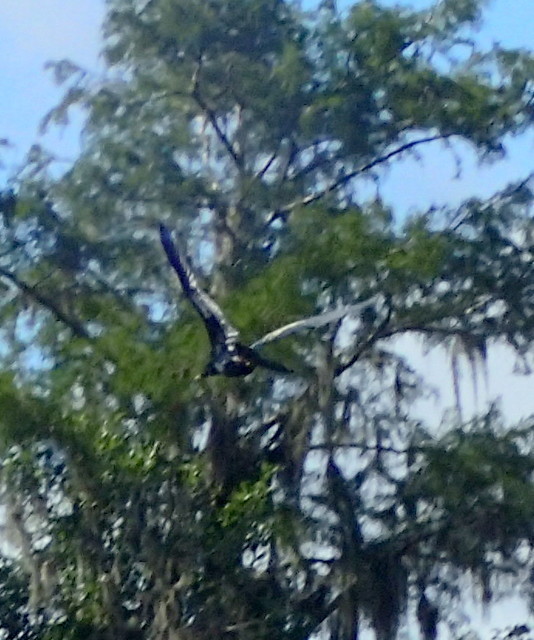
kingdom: Animalia
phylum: Chordata
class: Aves
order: Suliformes
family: Anhingidae
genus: Anhinga
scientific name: Anhinga anhinga
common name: Anhinga
